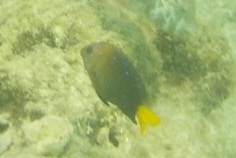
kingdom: Animalia
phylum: Chordata
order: Perciformes
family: Pomacentridae
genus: Microspathodon
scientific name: Microspathodon chrysurus
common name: Yellowtail damselfish
